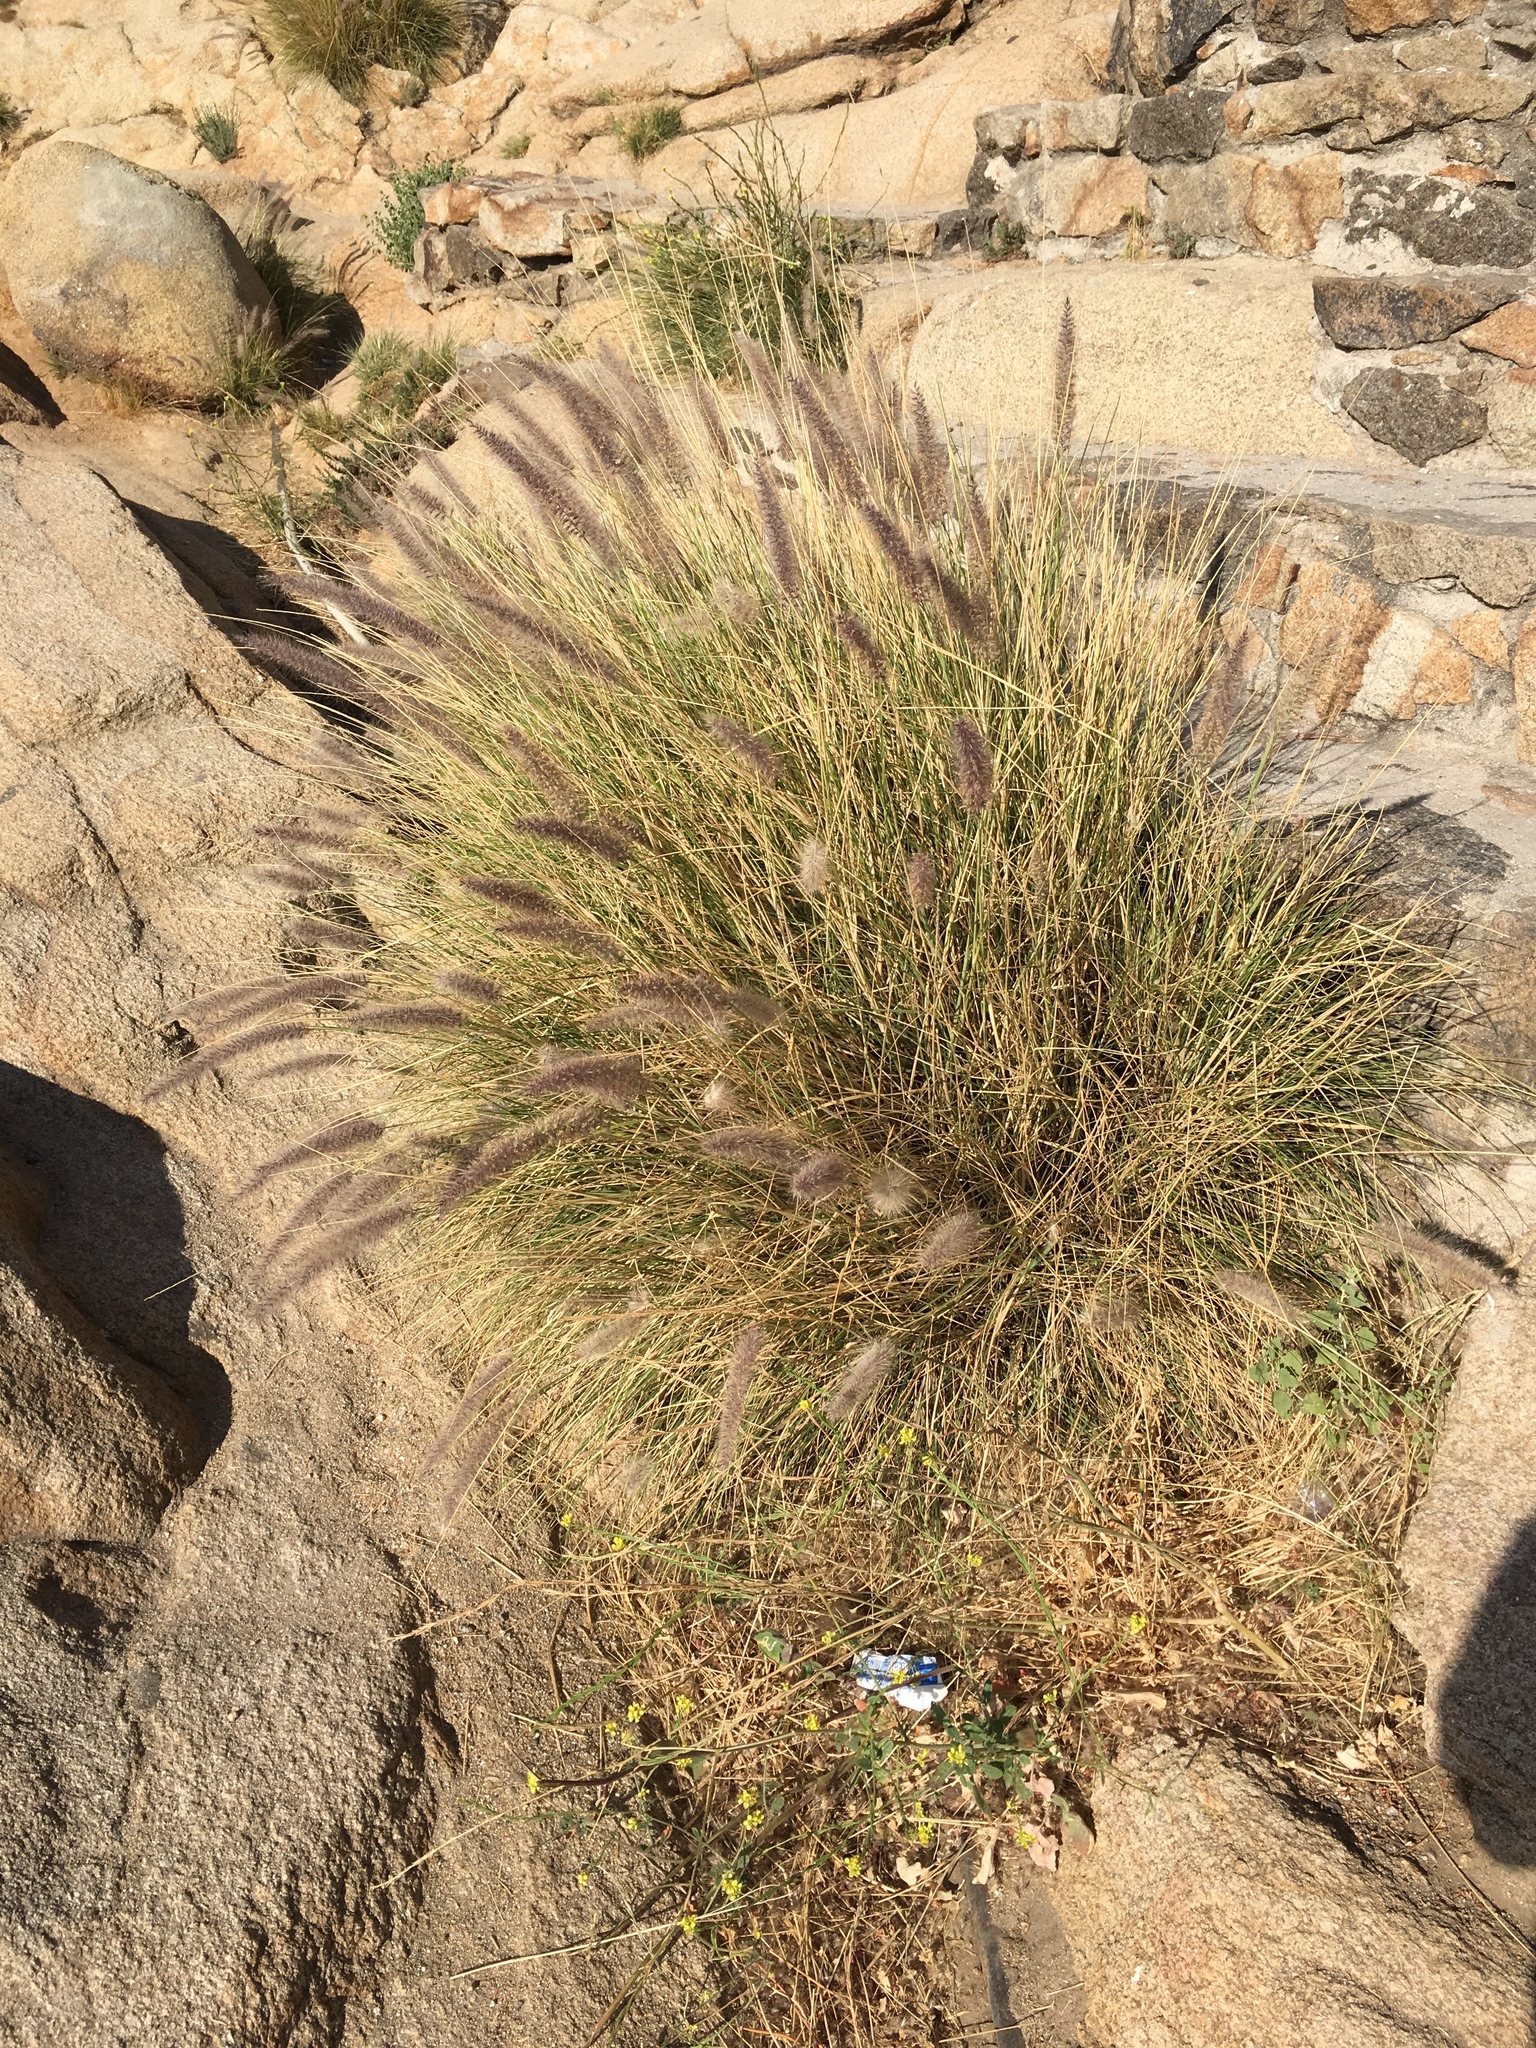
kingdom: Plantae
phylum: Tracheophyta
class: Liliopsida
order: Poales
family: Poaceae
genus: Cenchrus
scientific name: Cenchrus setaceus
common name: Crimson fountaingrass
